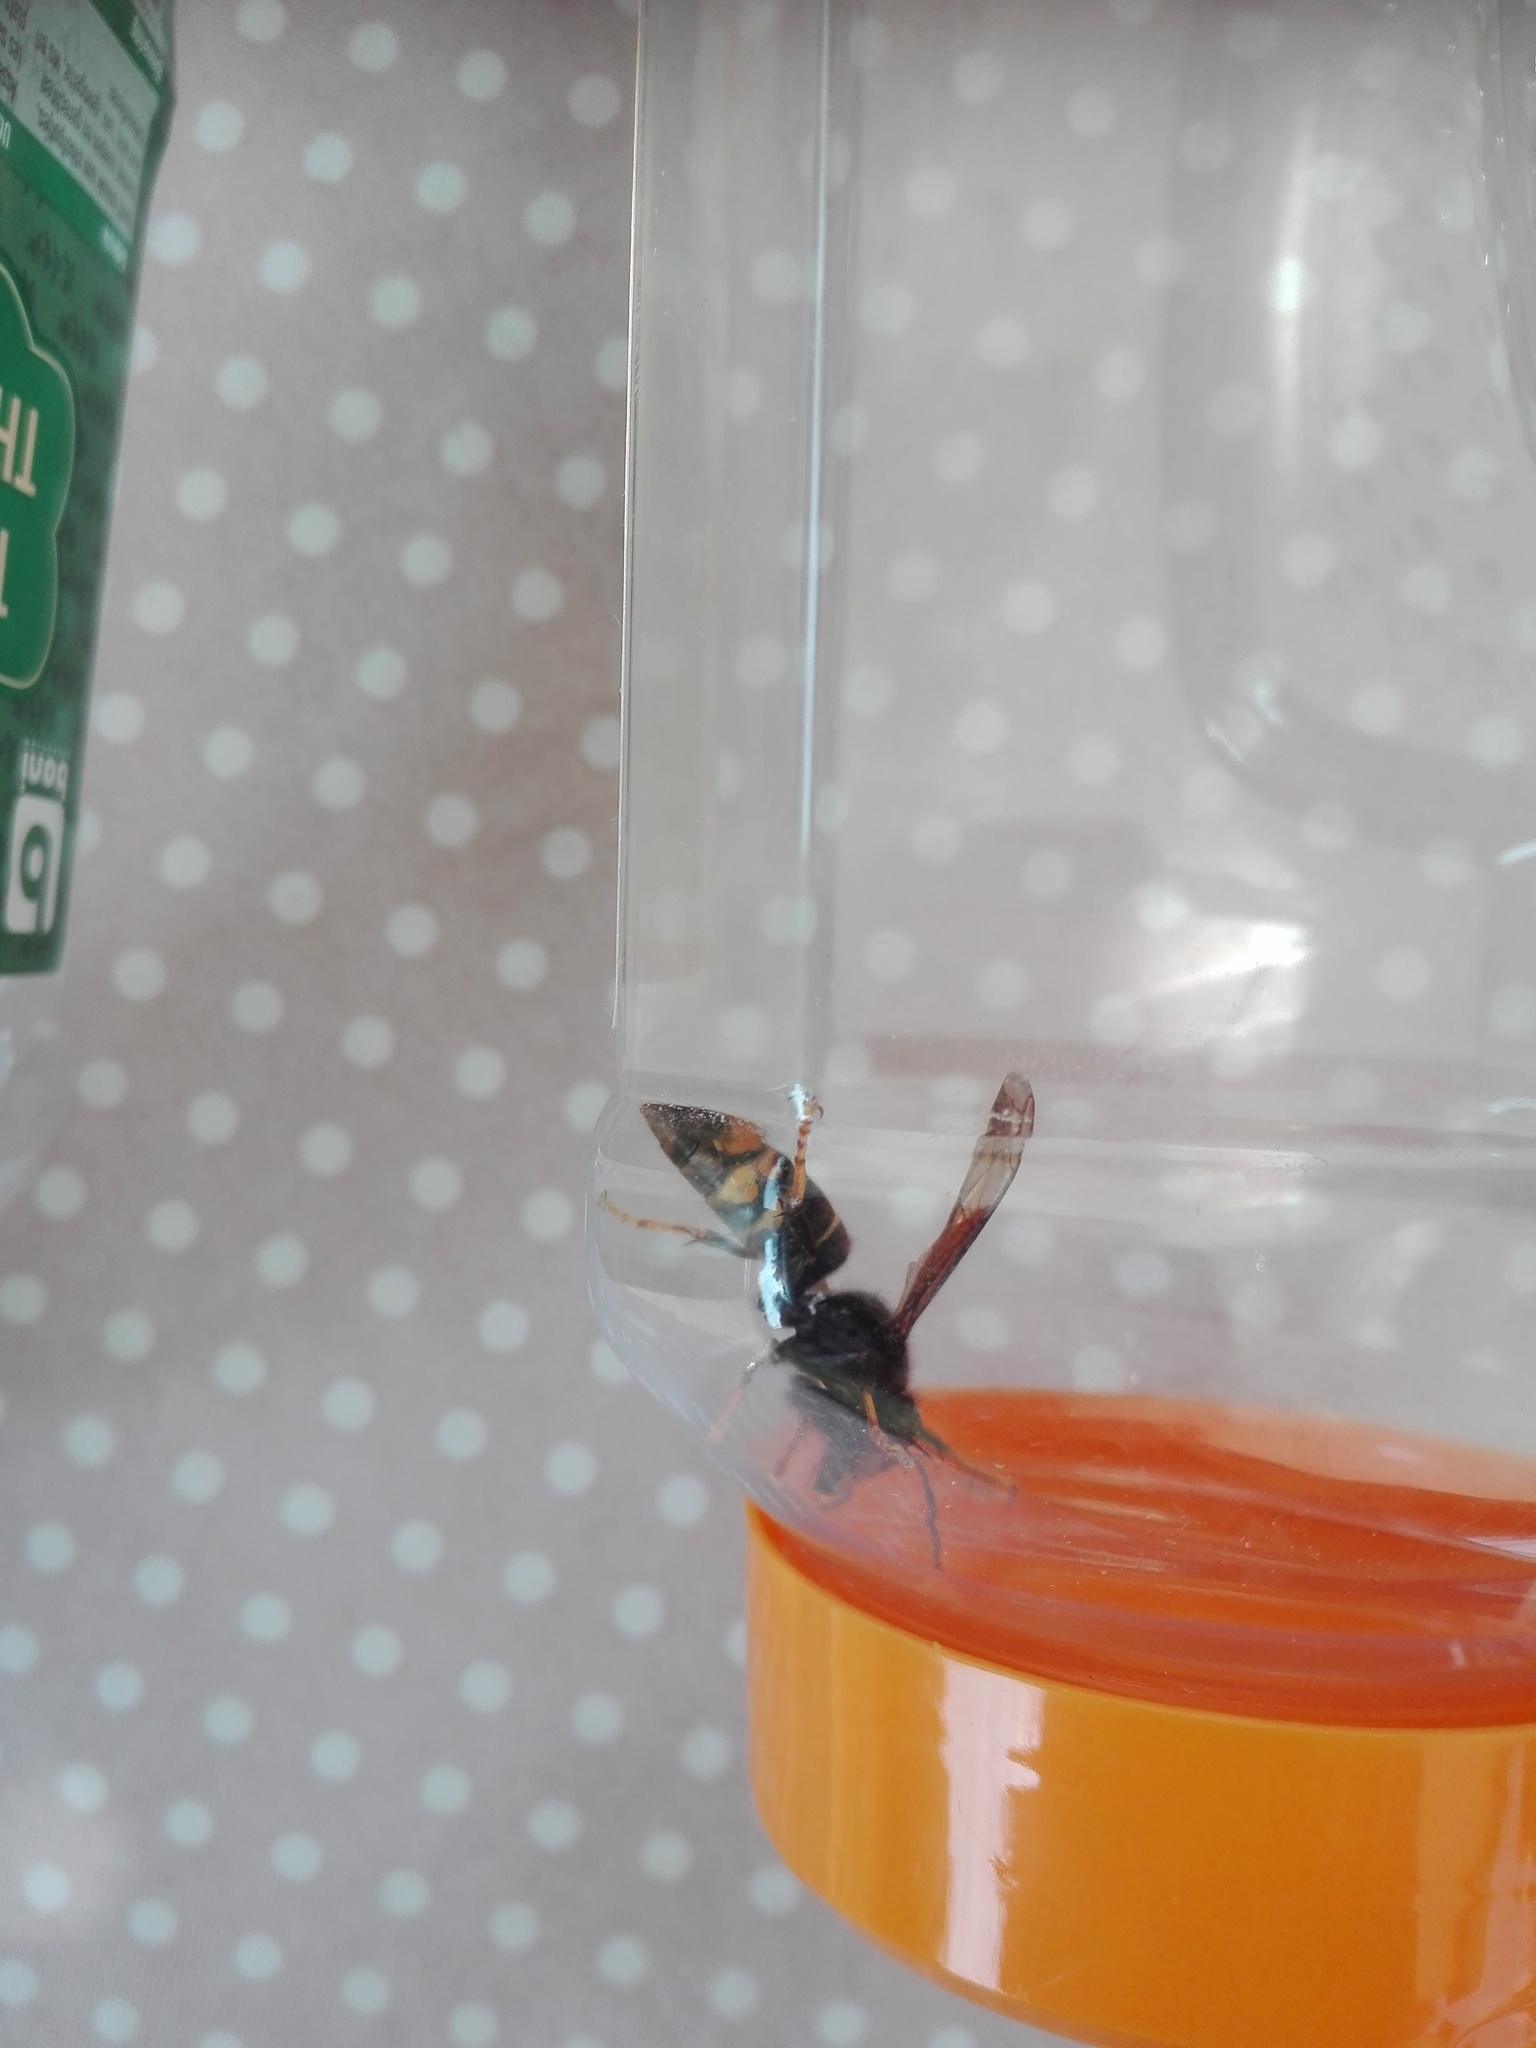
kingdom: Animalia
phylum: Arthropoda
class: Insecta
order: Hymenoptera
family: Vespidae
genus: Vespa
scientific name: Vespa velutina
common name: Asian hornet
